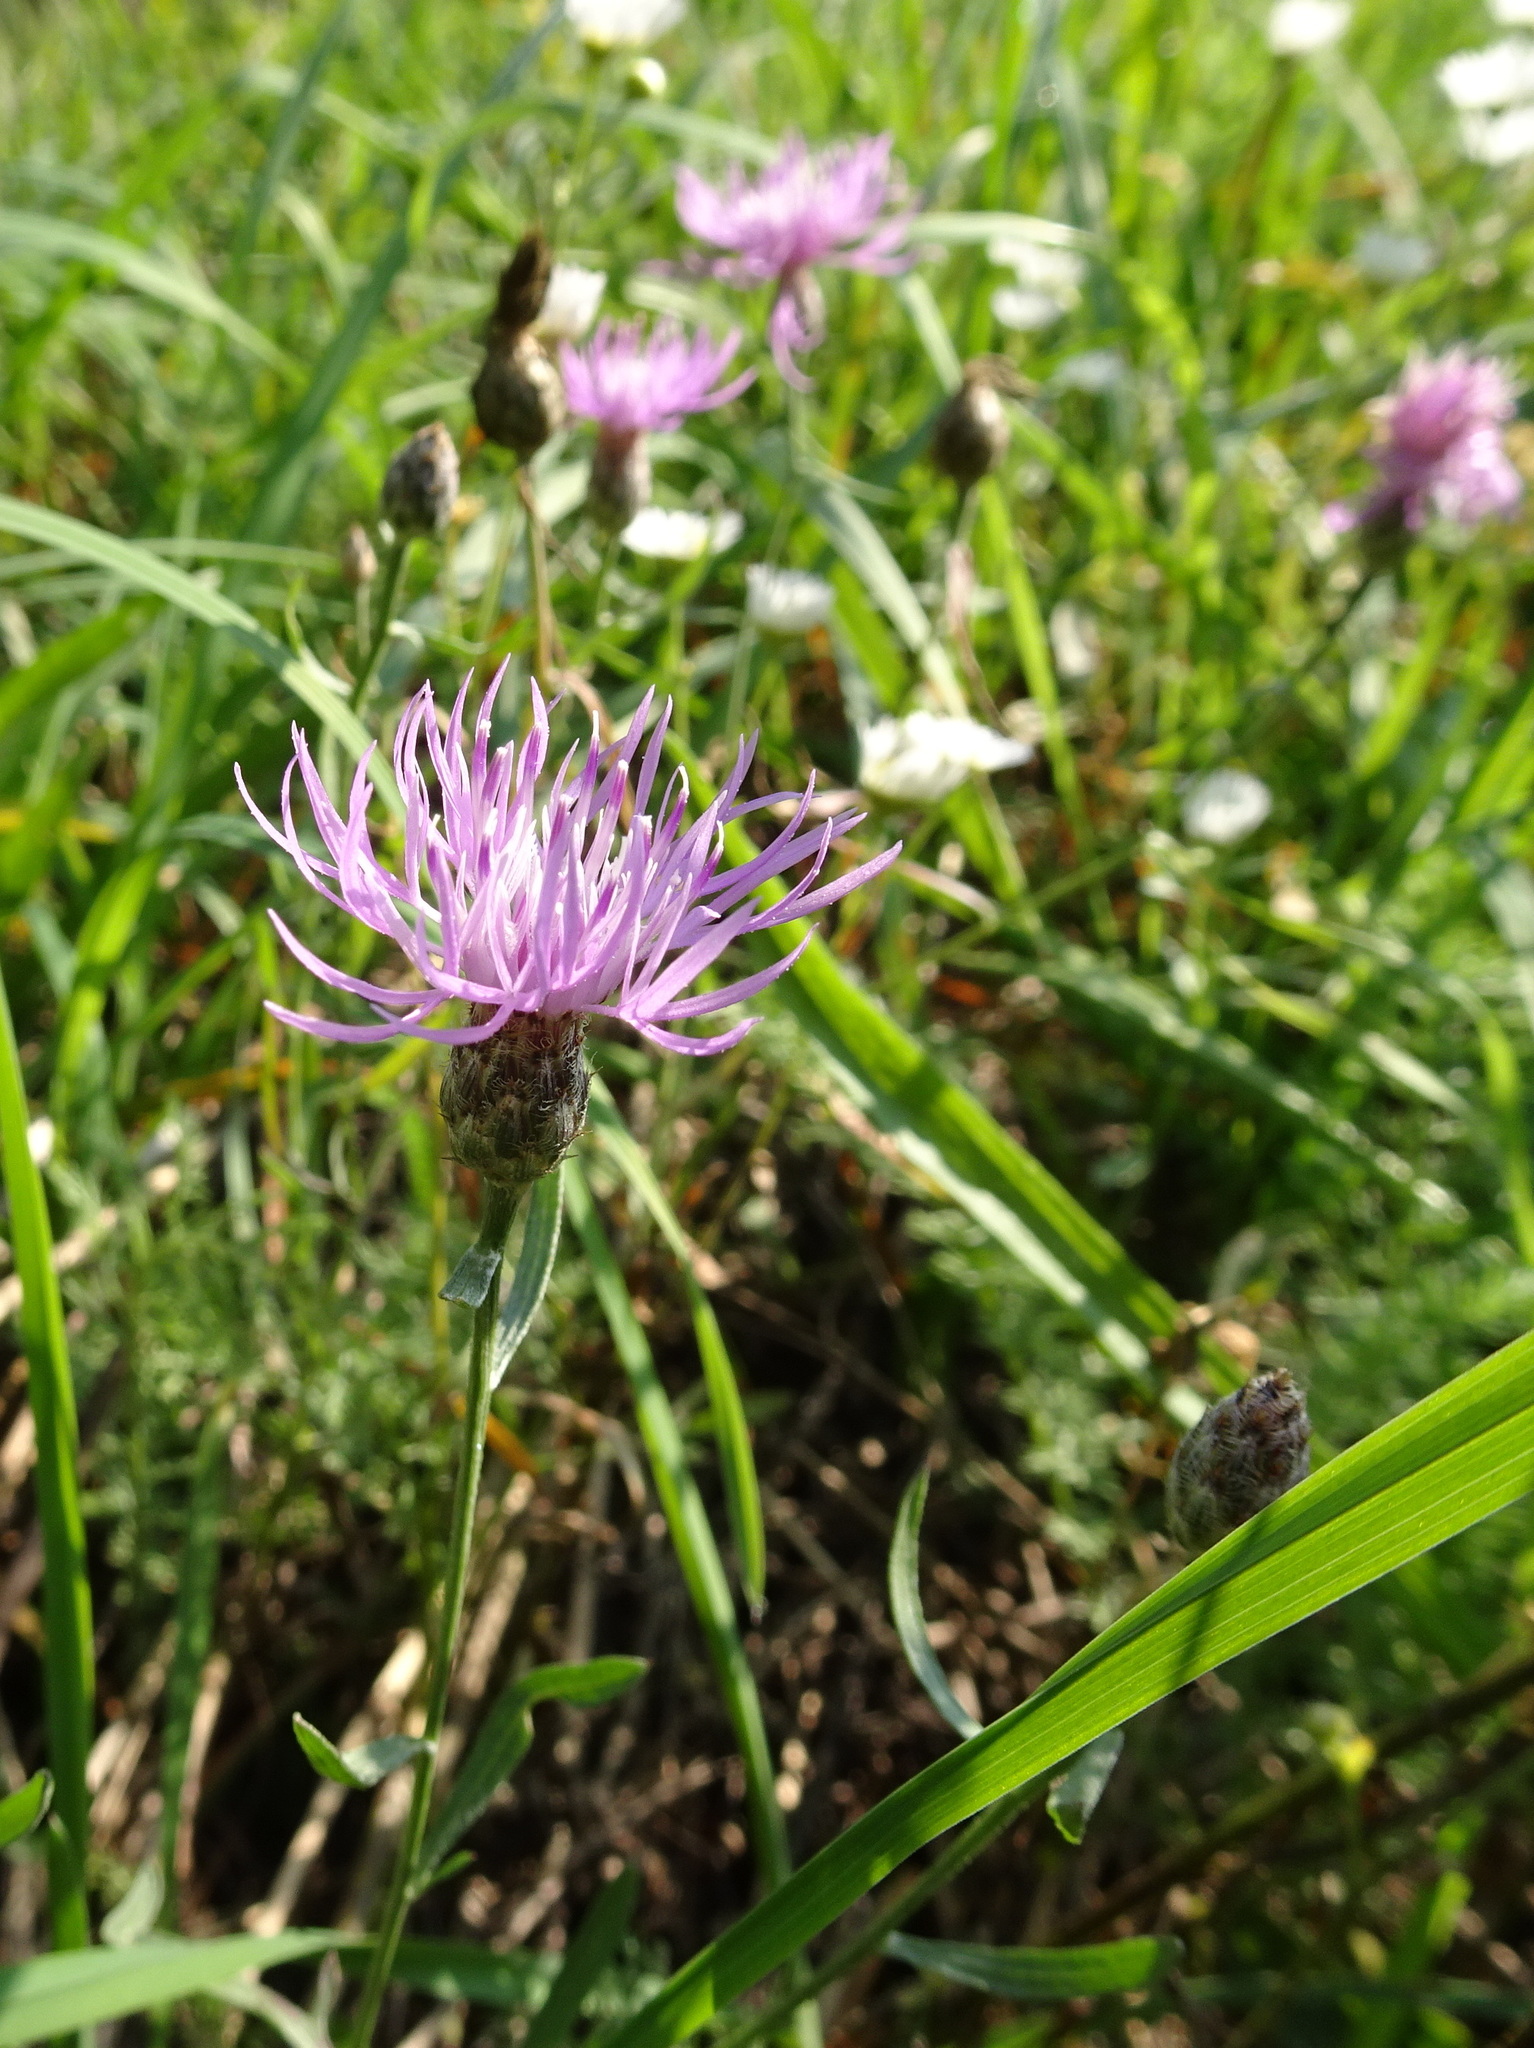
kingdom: Plantae
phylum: Tracheophyta
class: Magnoliopsida
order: Asterales
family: Asteraceae
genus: Centaurea
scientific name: Centaurea stoebe
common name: Spotted knapweed
